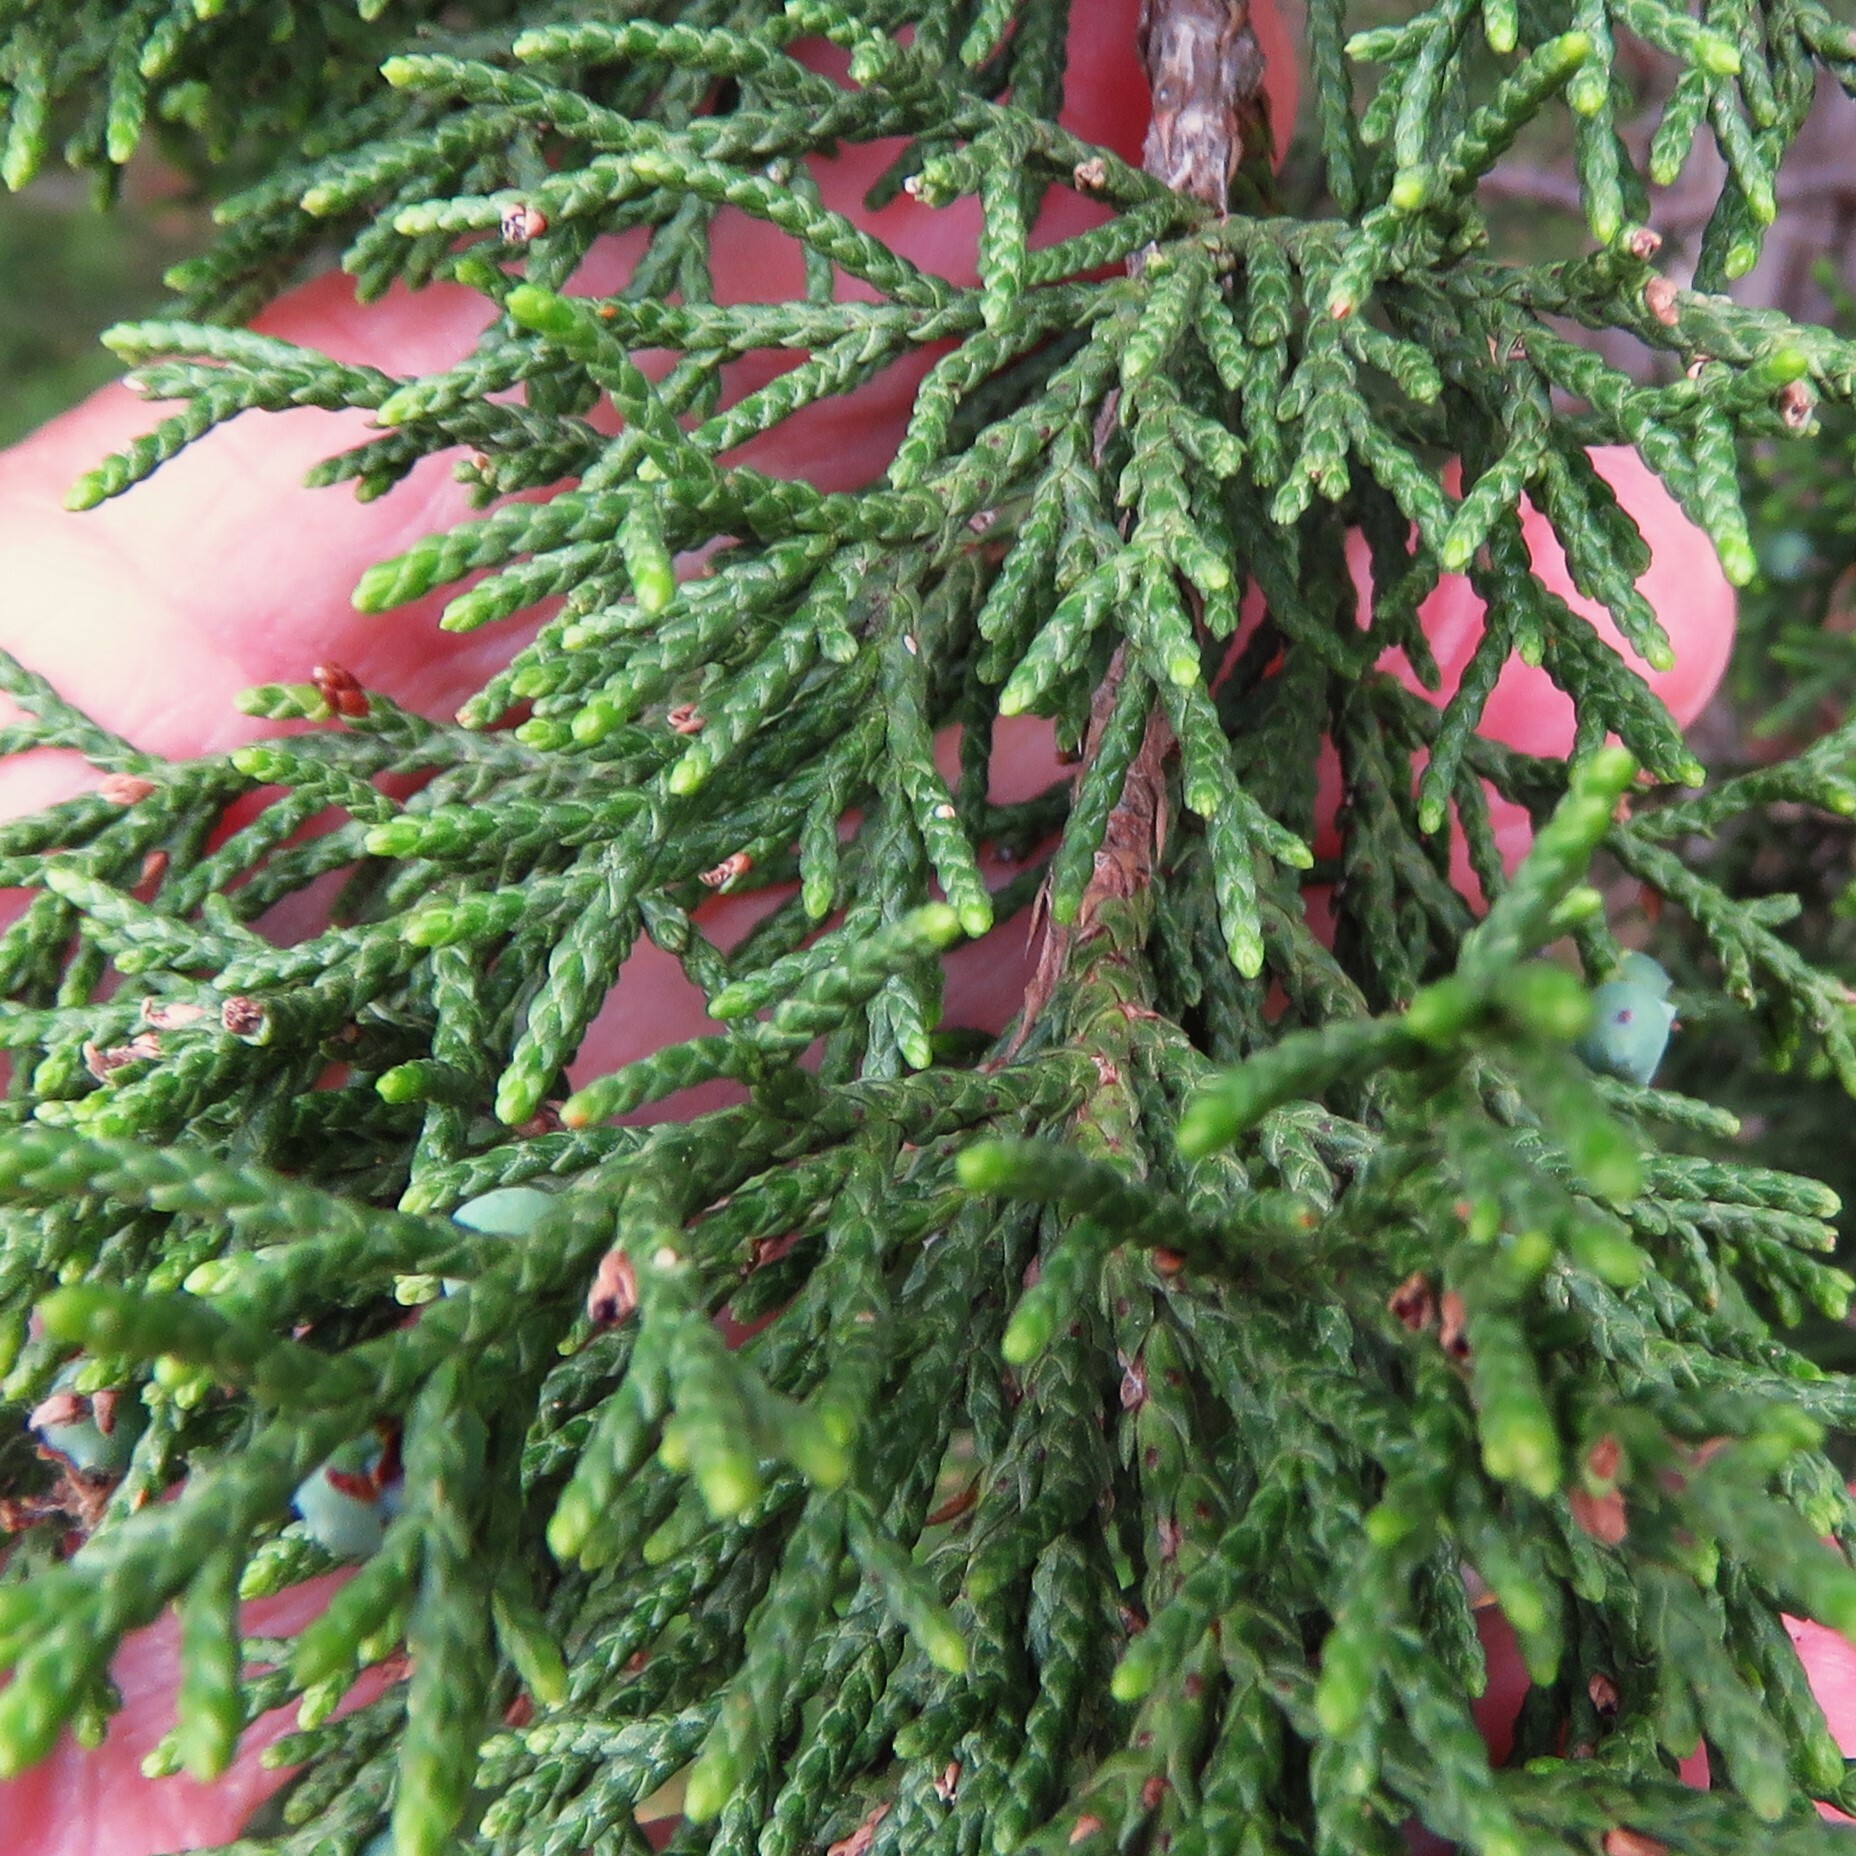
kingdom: Plantae
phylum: Tracheophyta
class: Pinopsida
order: Pinales
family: Cupressaceae
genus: Juniperus
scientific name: Juniperus ashei
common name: Mexican juniper
